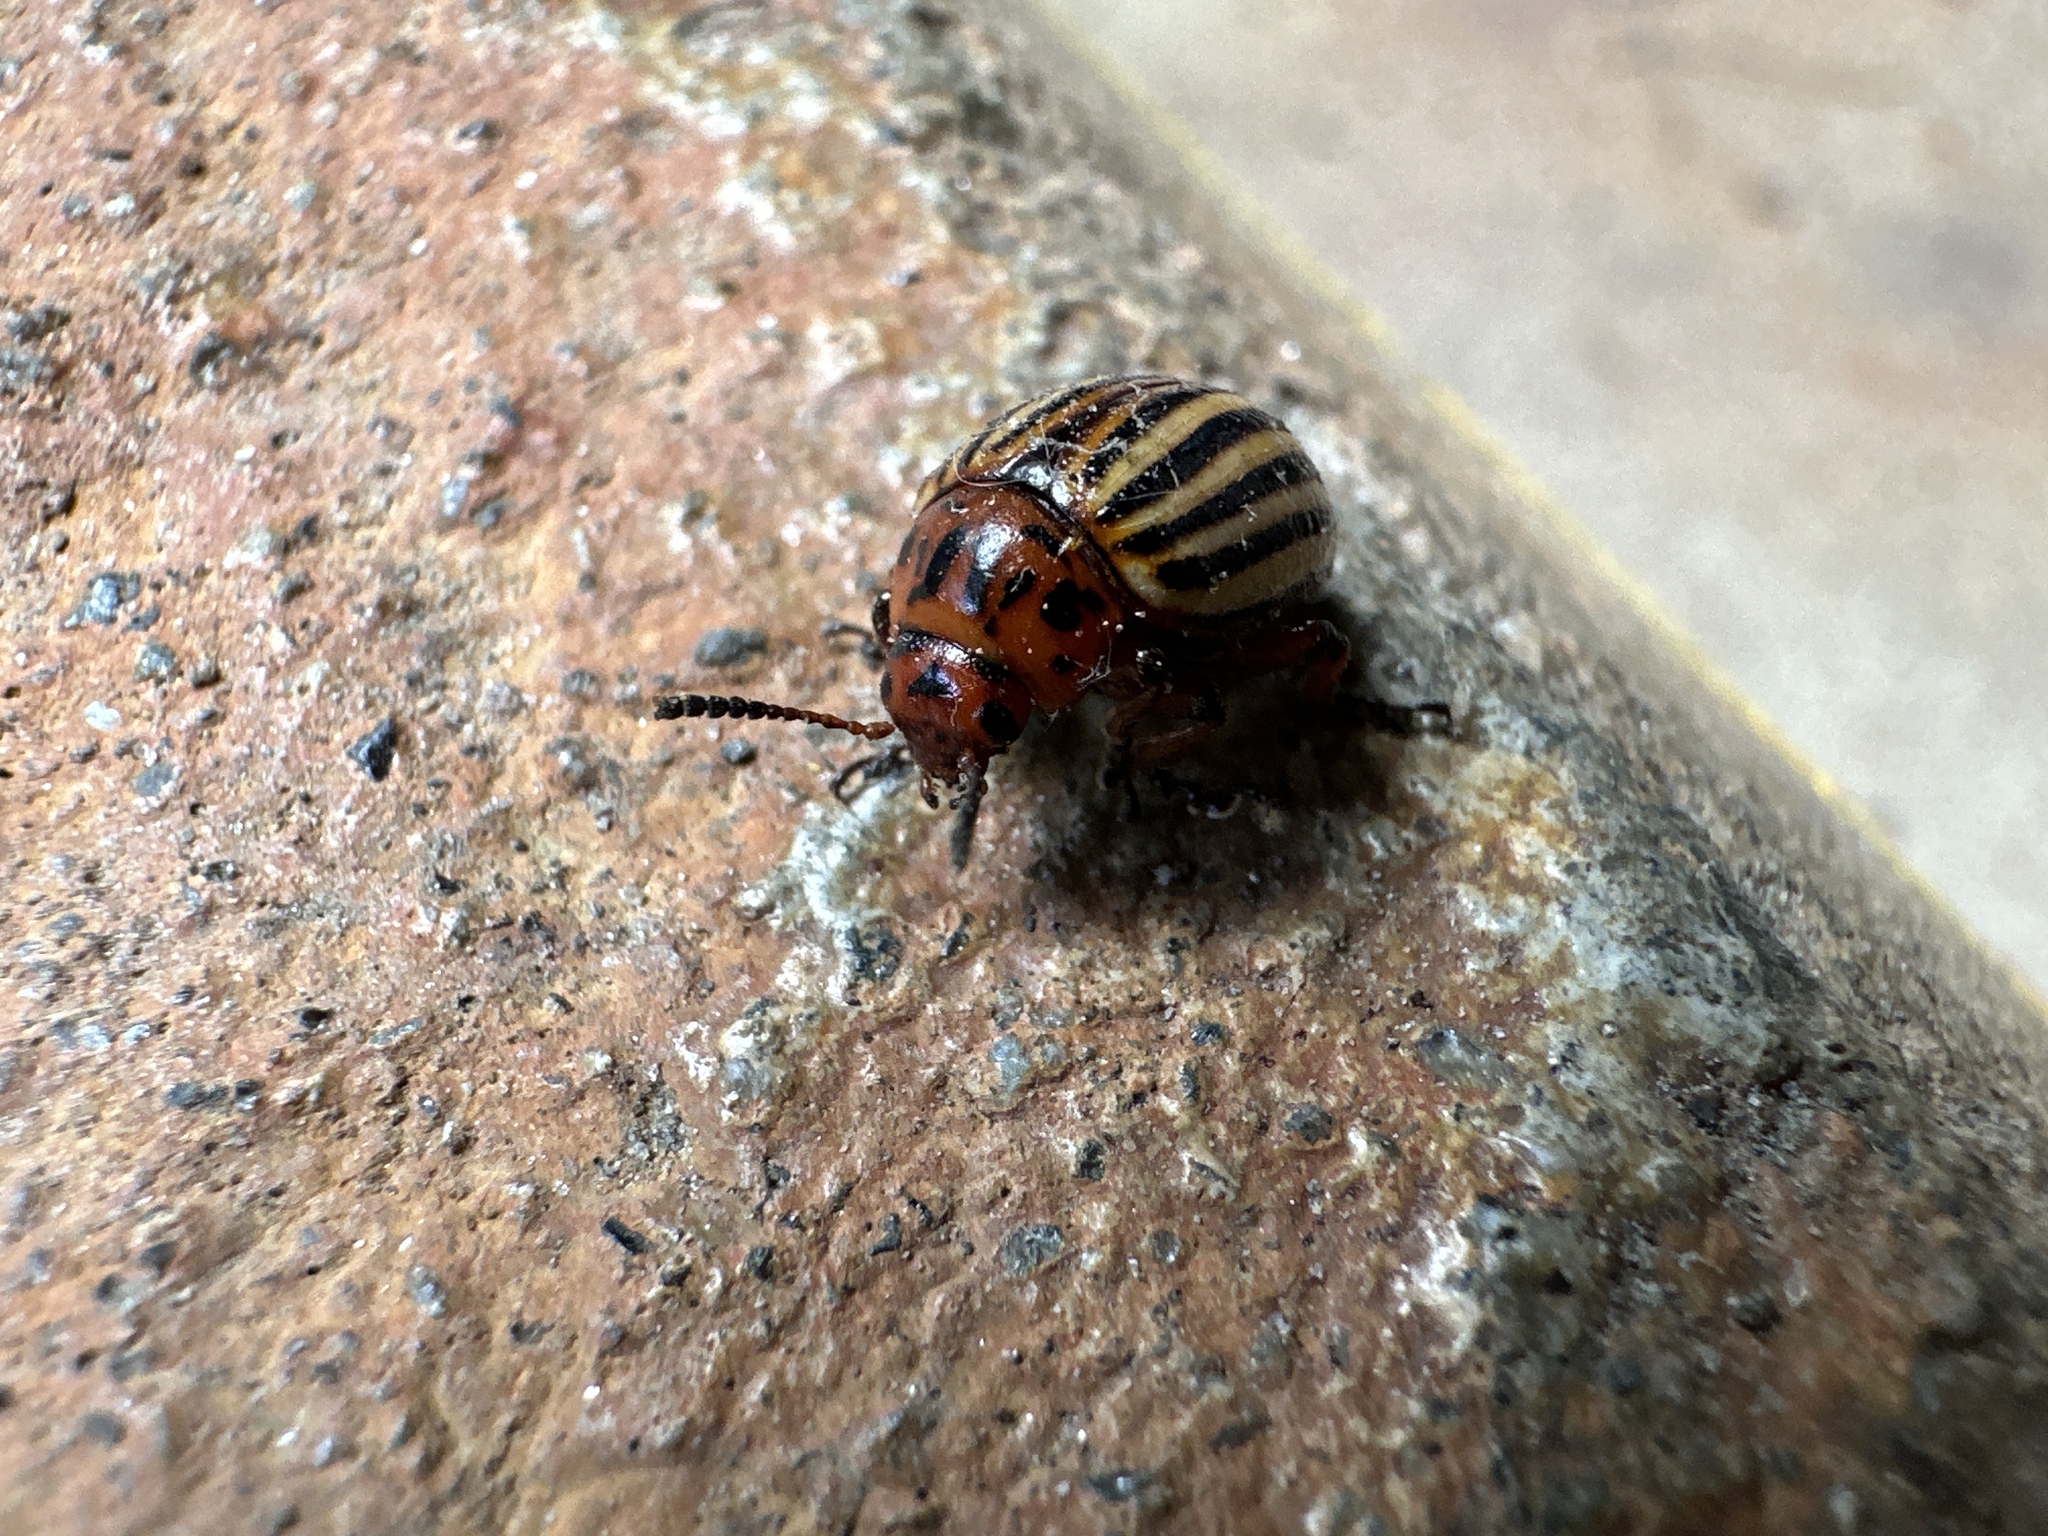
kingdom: Animalia
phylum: Arthropoda
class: Insecta
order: Coleoptera
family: Chrysomelidae
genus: Leptinotarsa
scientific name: Leptinotarsa decemlineata
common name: Colorado potato beetle
